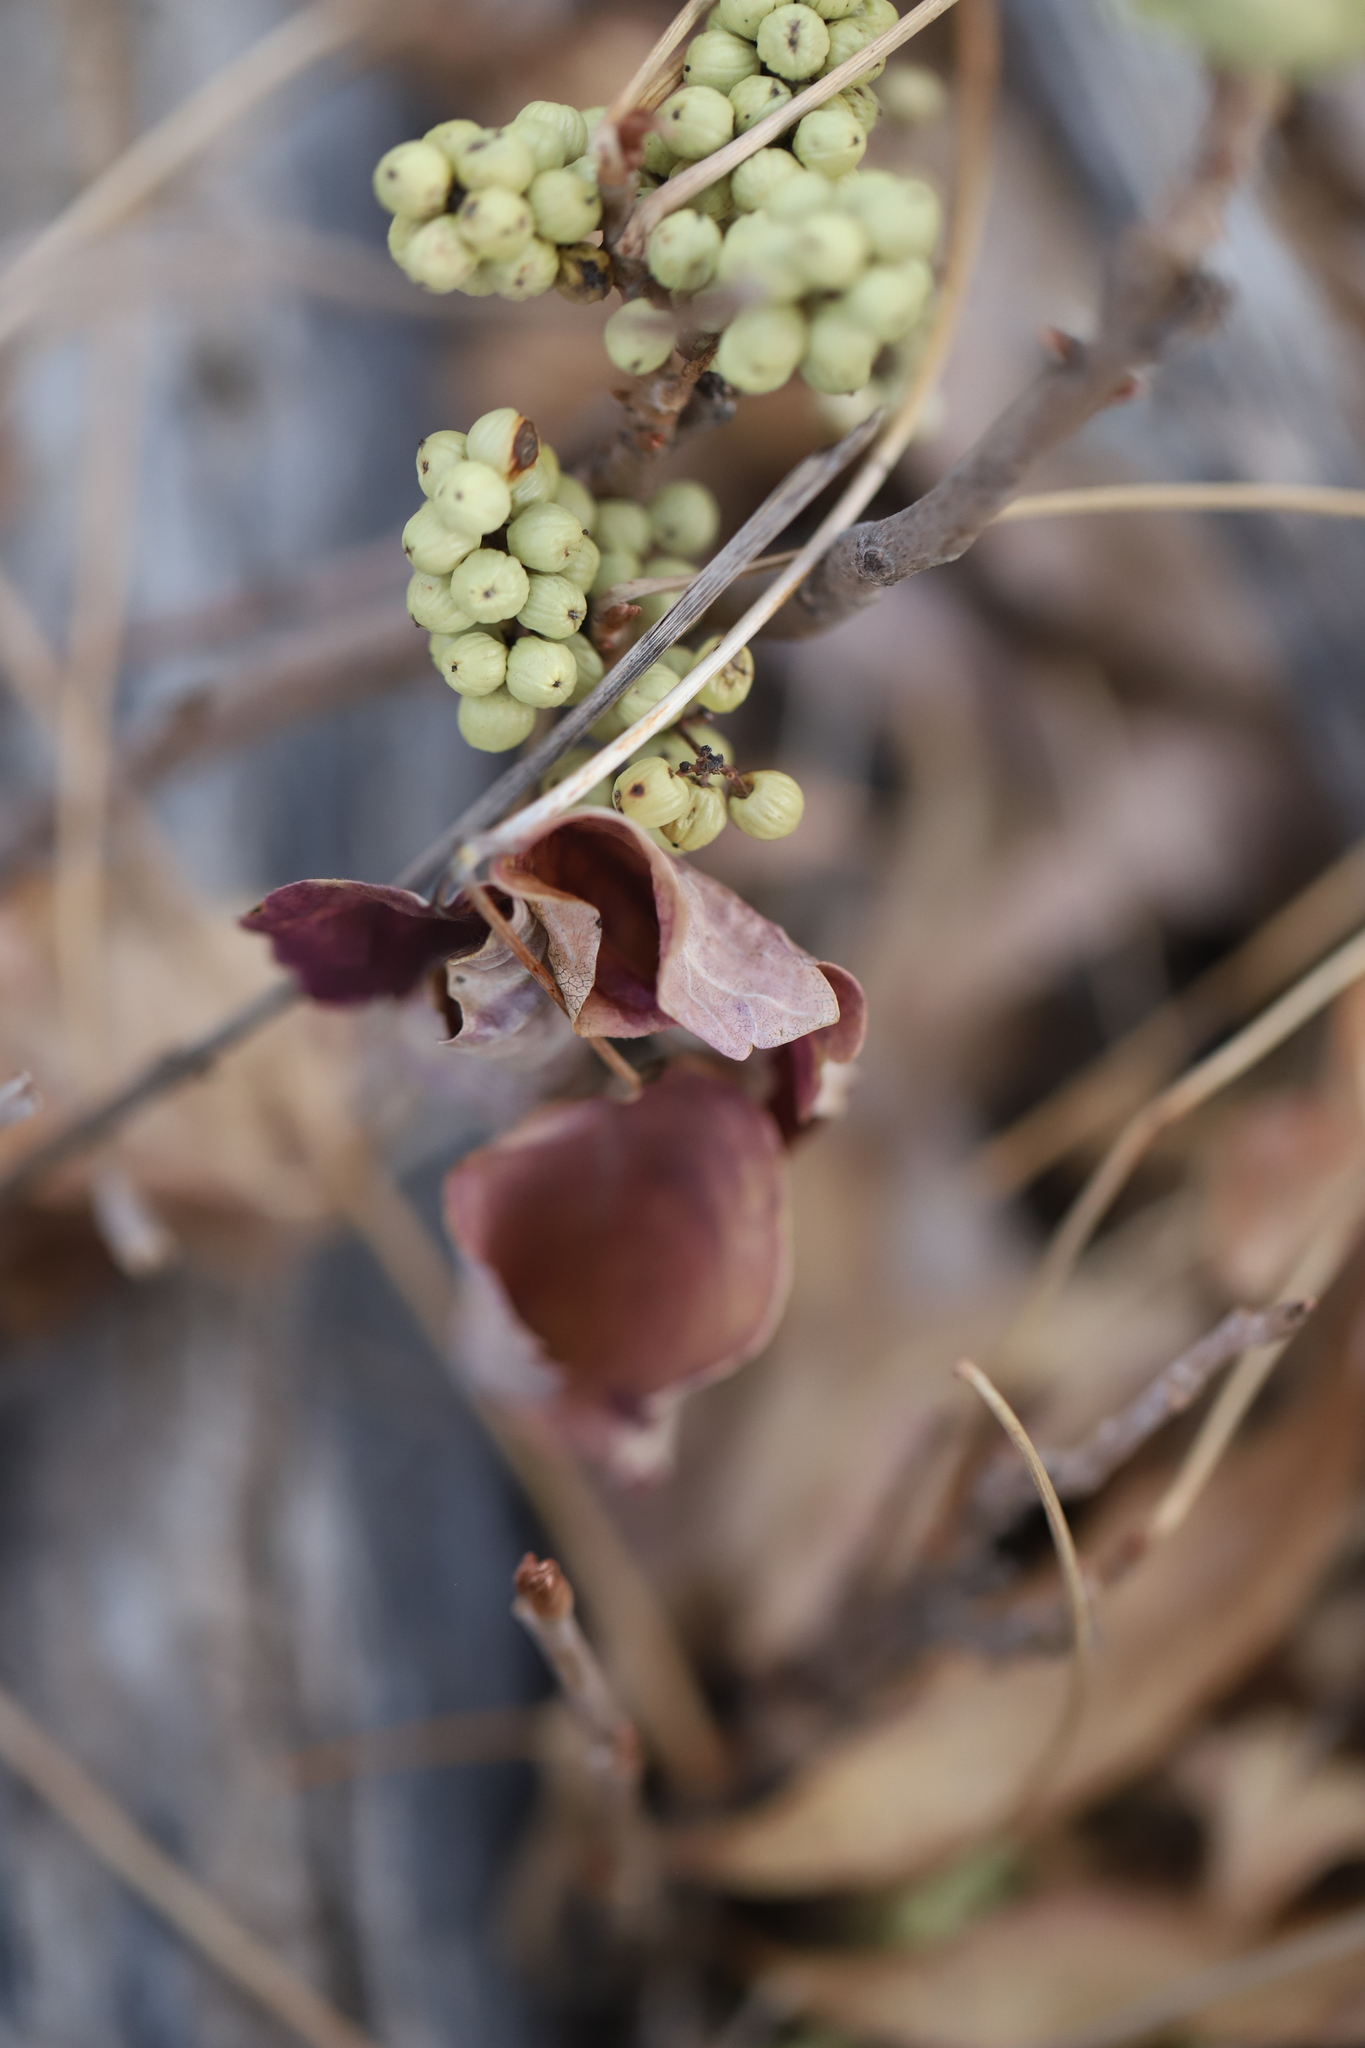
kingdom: Plantae
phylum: Tracheophyta
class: Magnoliopsida
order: Sapindales
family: Anacardiaceae
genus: Toxicodendron
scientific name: Toxicodendron rydbergii
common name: Rydberg's poison-ivy
